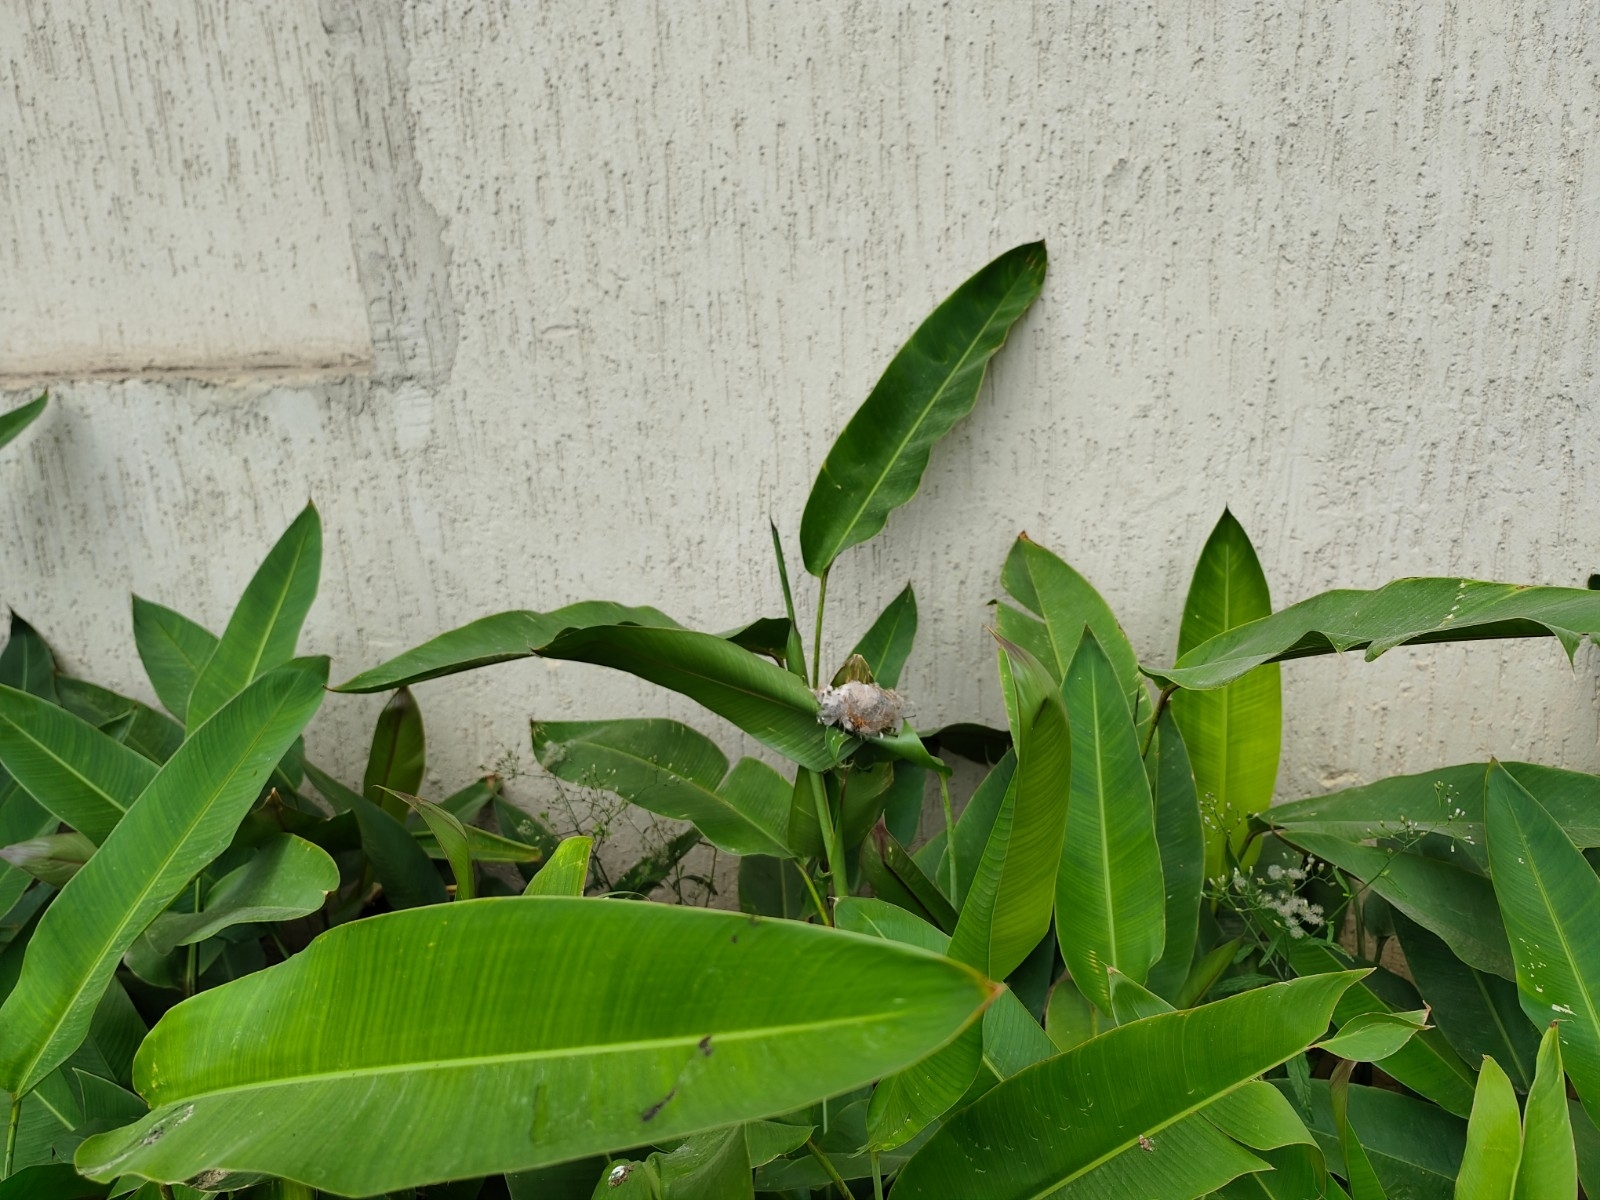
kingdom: Animalia
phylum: Arthropoda
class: Insecta
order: Hymenoptera
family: Formicidae
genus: Oecophylla
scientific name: Oecophylla smaragdina
